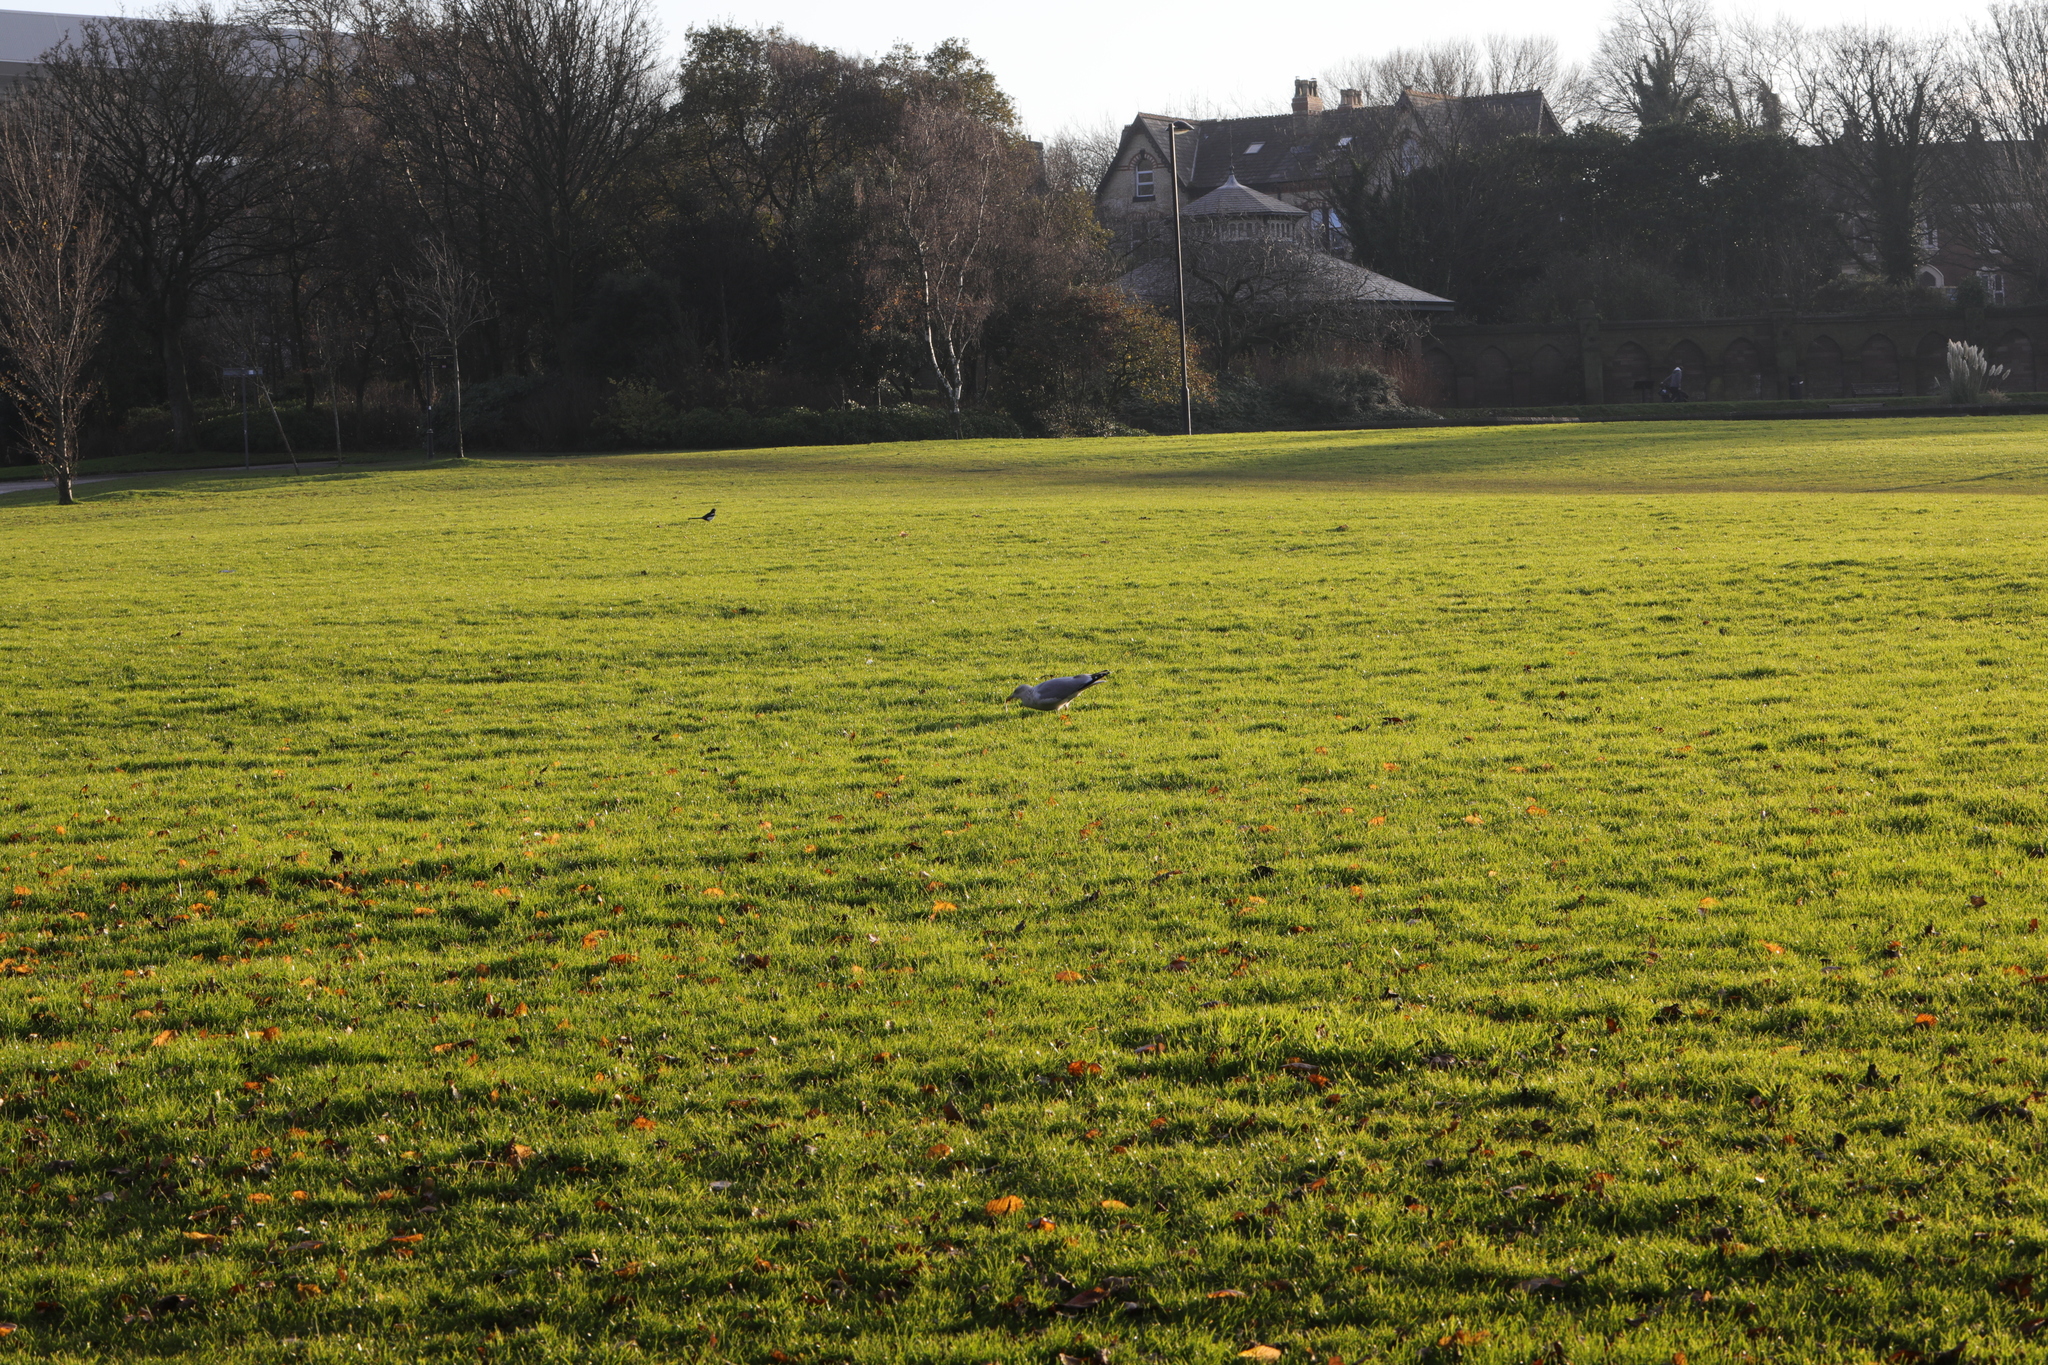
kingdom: Animalia
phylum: Chordata
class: Aves
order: Charadriiformes
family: Laridae
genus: Larus
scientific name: Larus argentatus
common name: Herring gull
